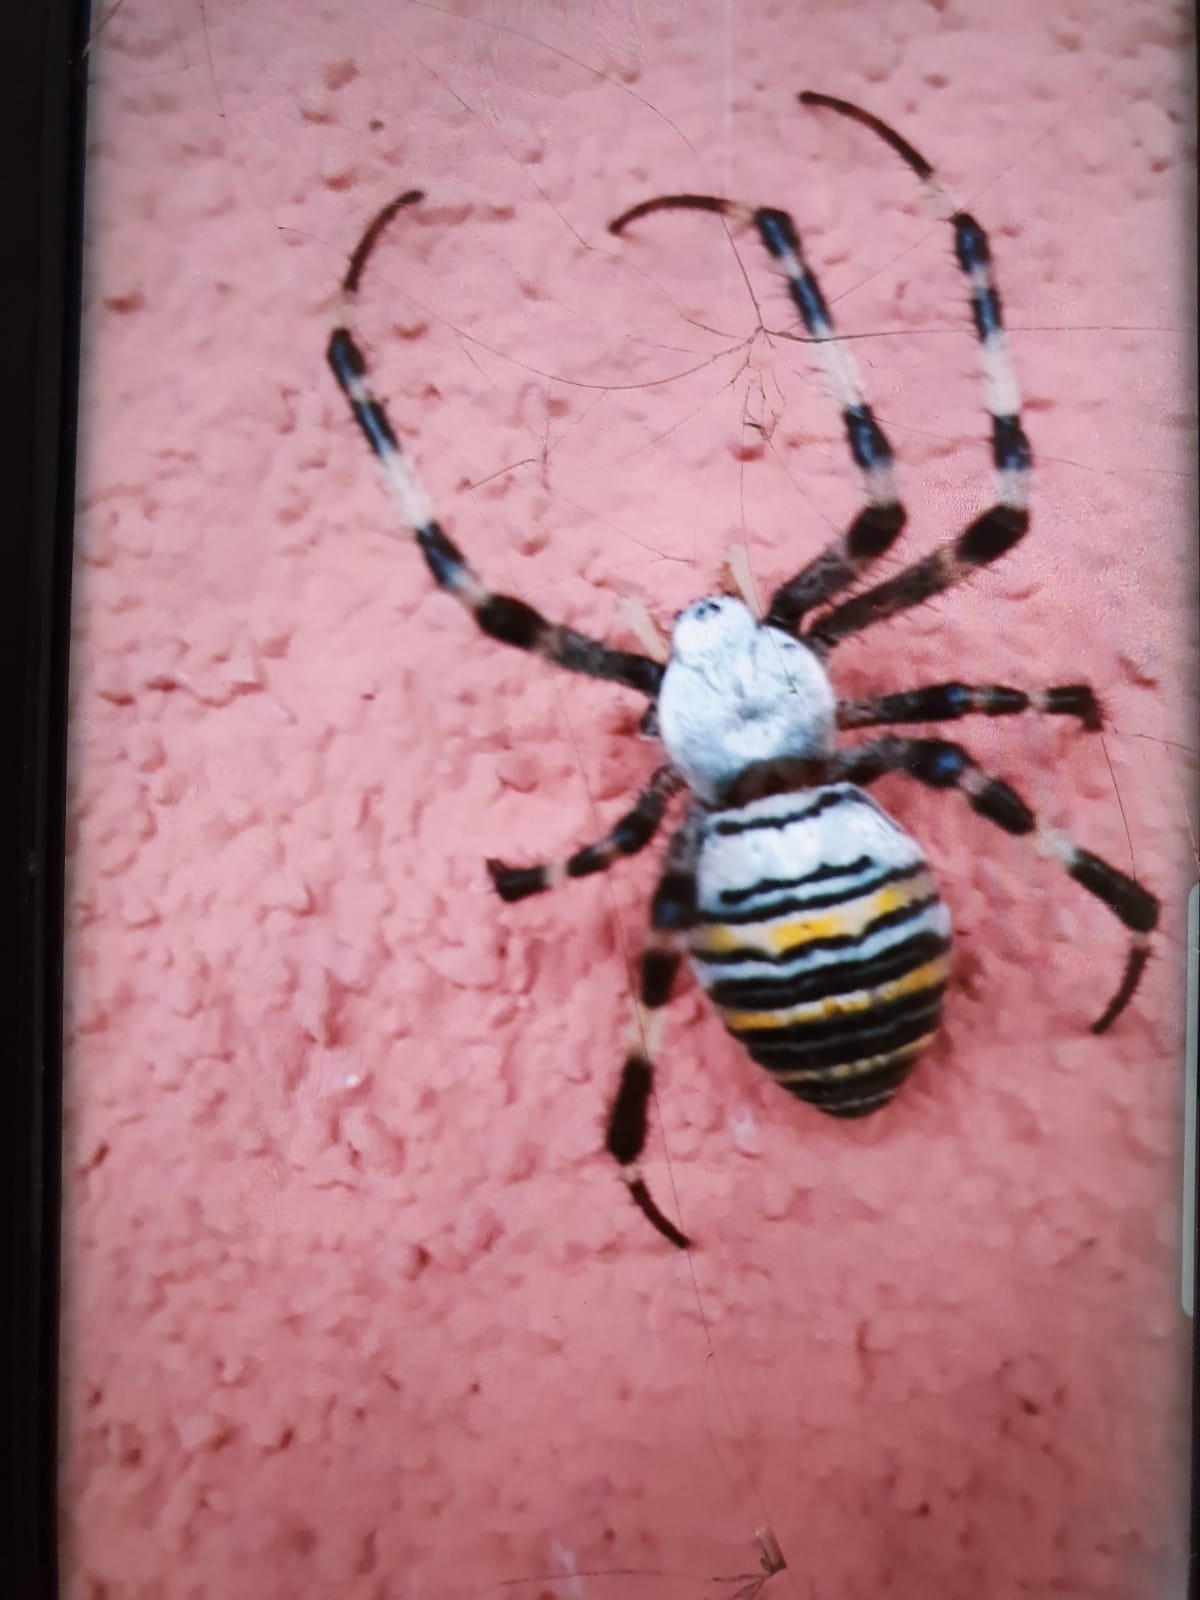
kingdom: Animalia
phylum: Arthropoda
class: Arachnida
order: Araneae
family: Araneidae
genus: Argiope
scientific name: Argiope bruennichi
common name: Wasp spider
